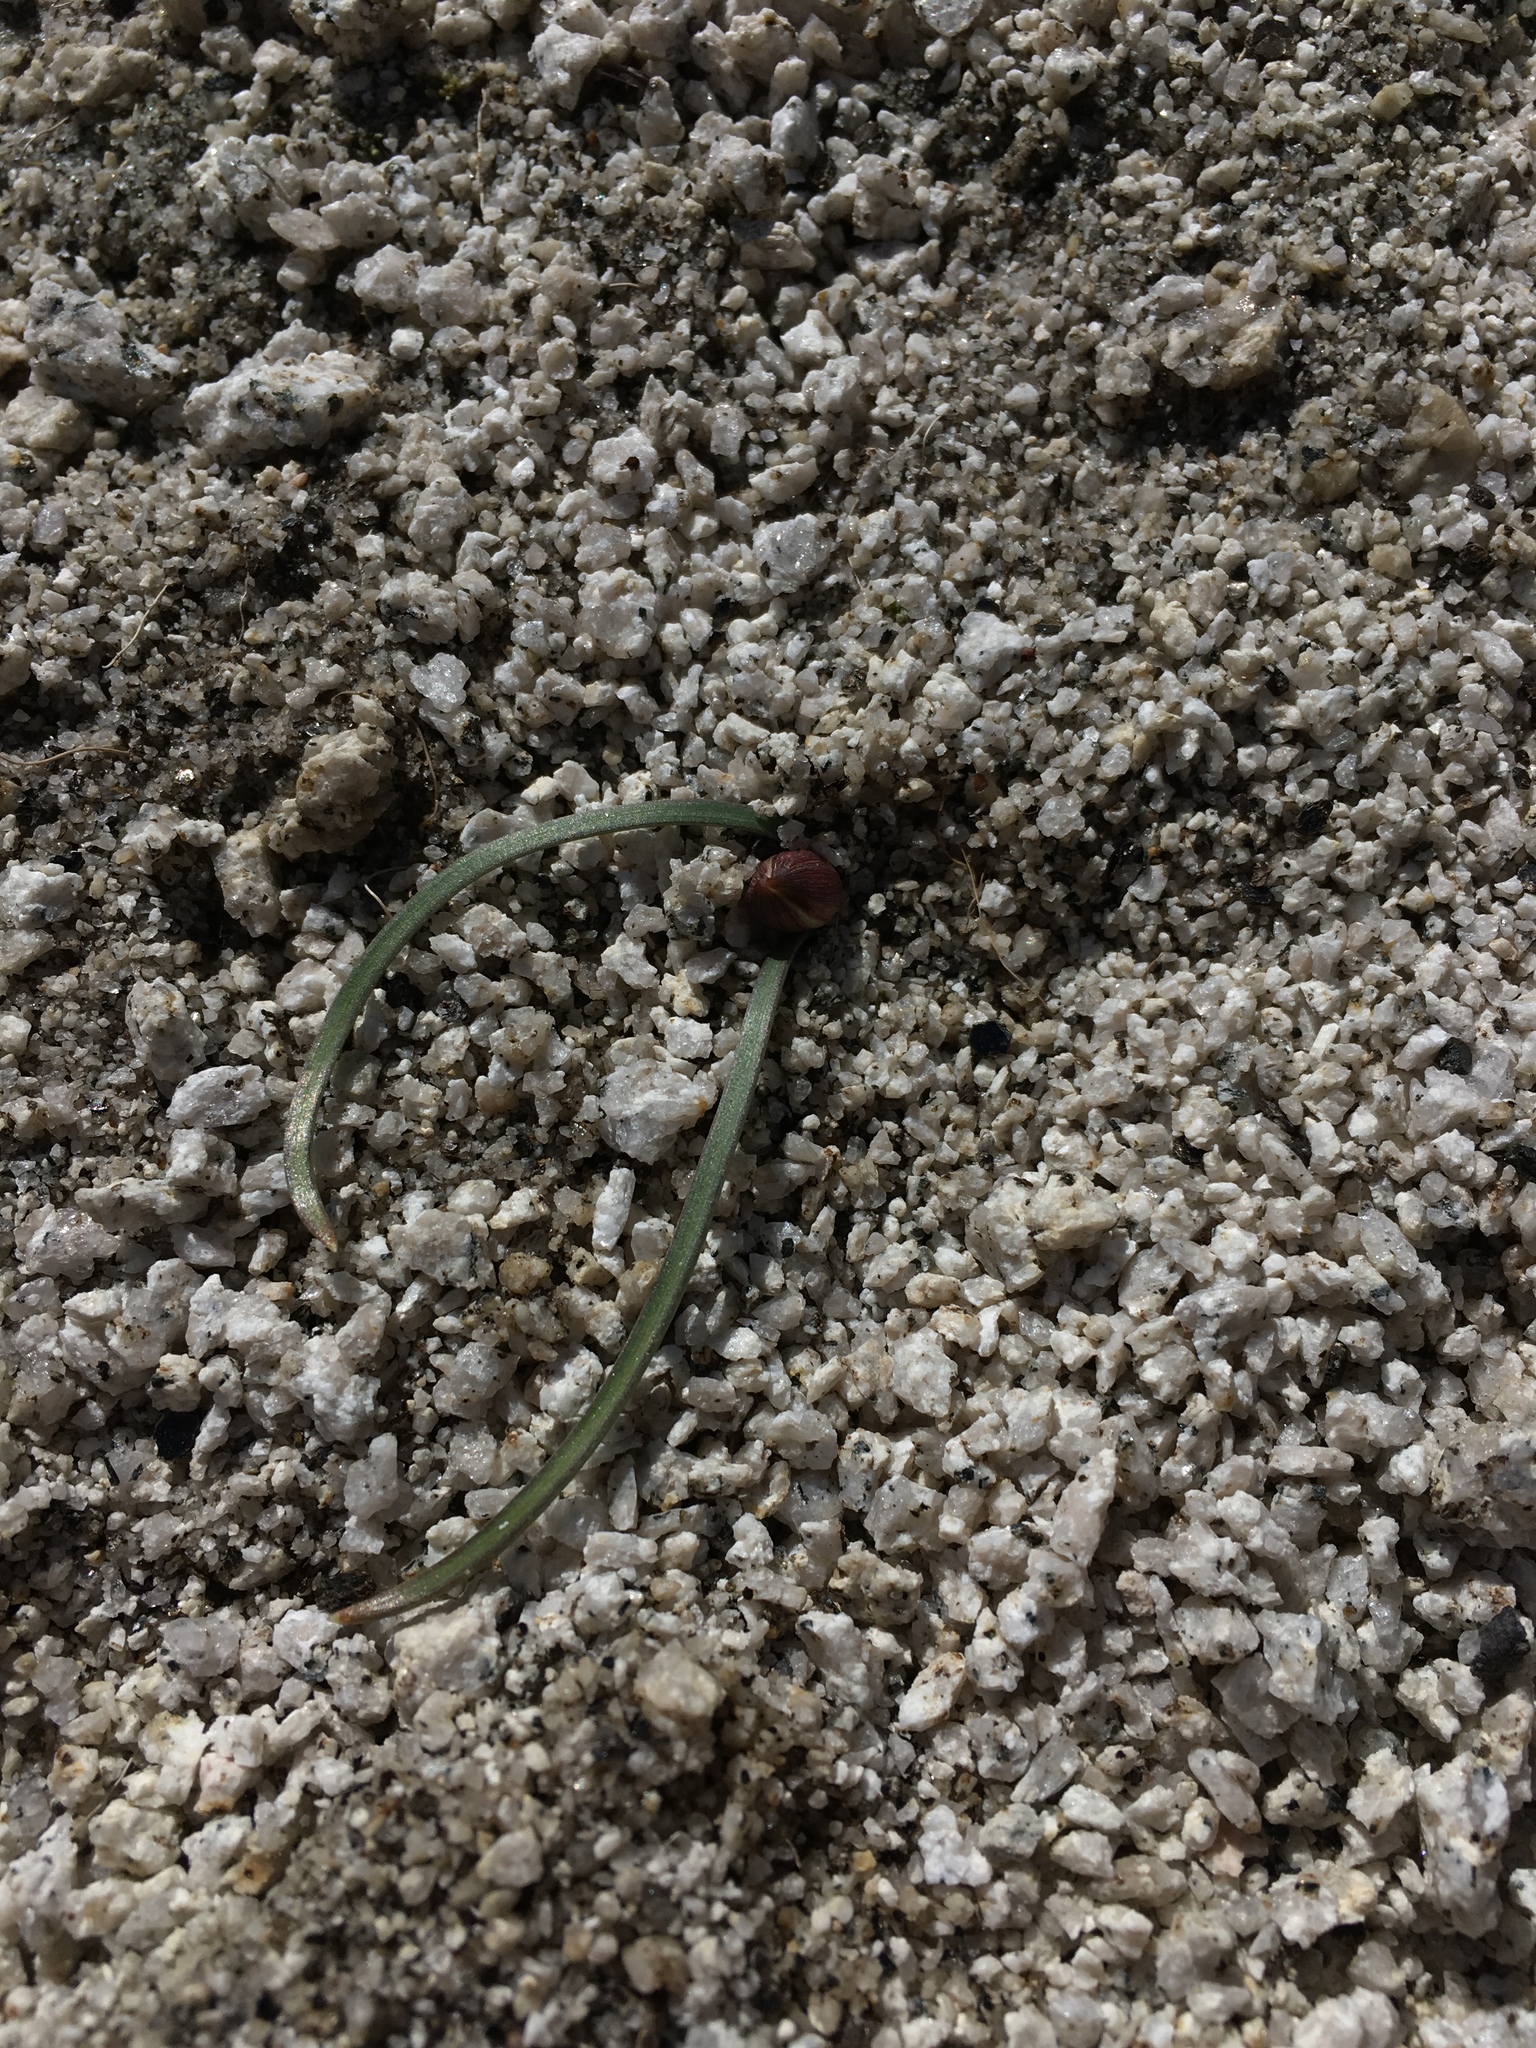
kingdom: Plantae
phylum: Tracheophyta
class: Liliopsida
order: Asparagales
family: Amaryllidaceae
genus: Allium
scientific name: Allium parvum
